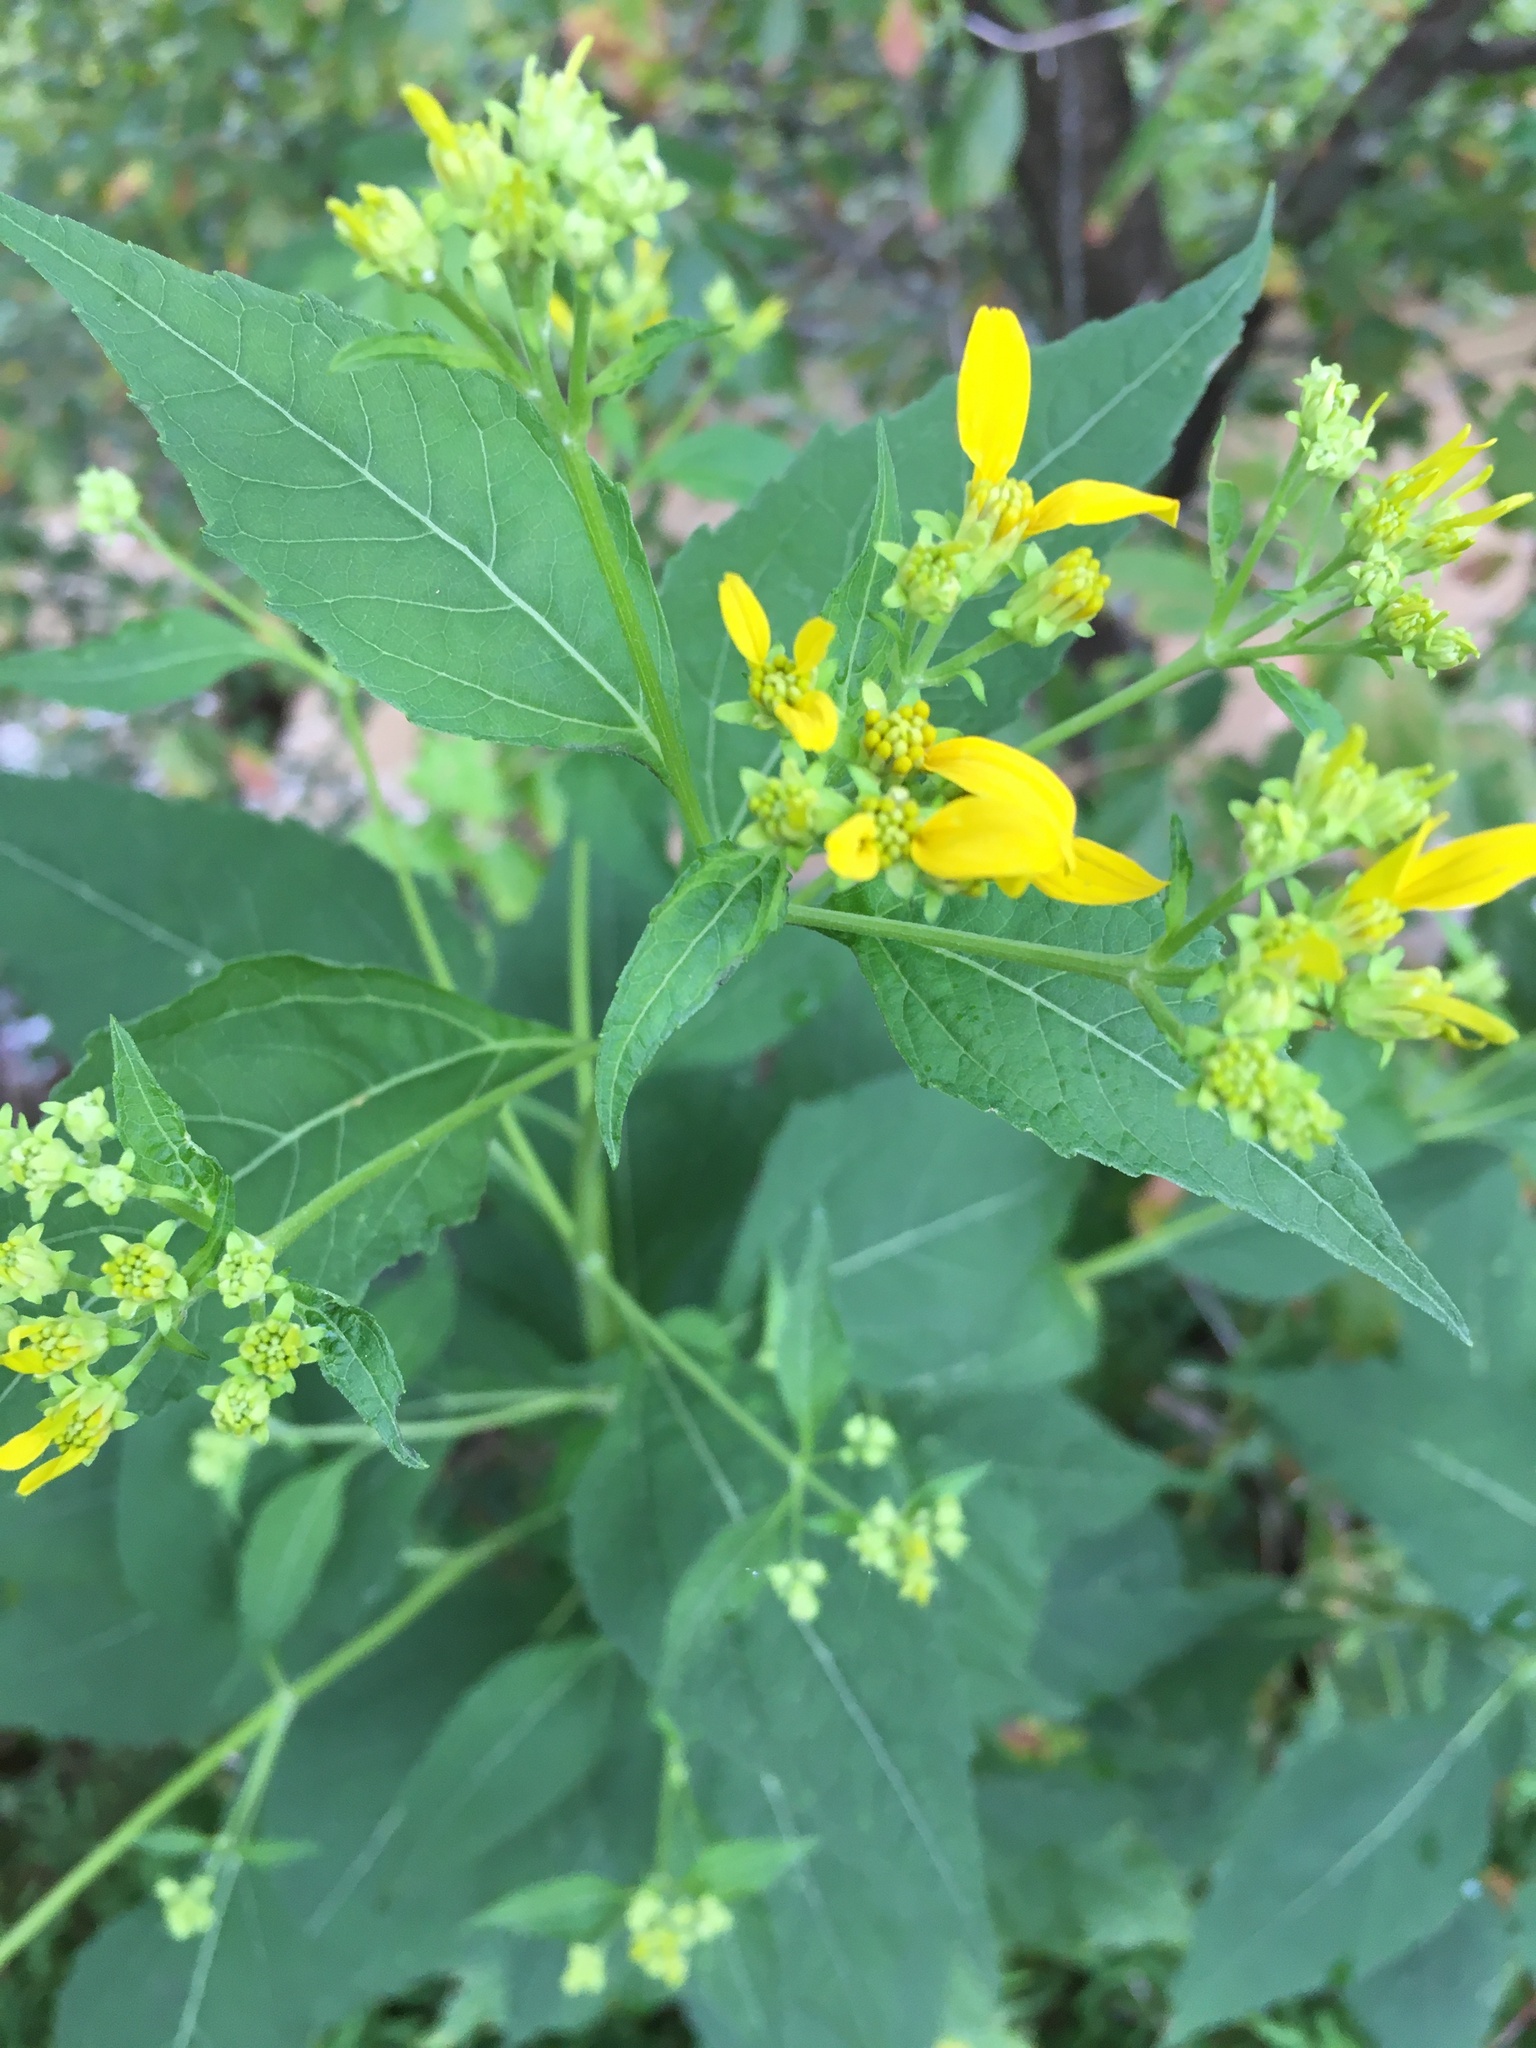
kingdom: Plantae
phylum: Tracheophyta
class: Magnoliopsida
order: Asterales
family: Asteraceae
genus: Verbesina
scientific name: Verbesina occidentalis
